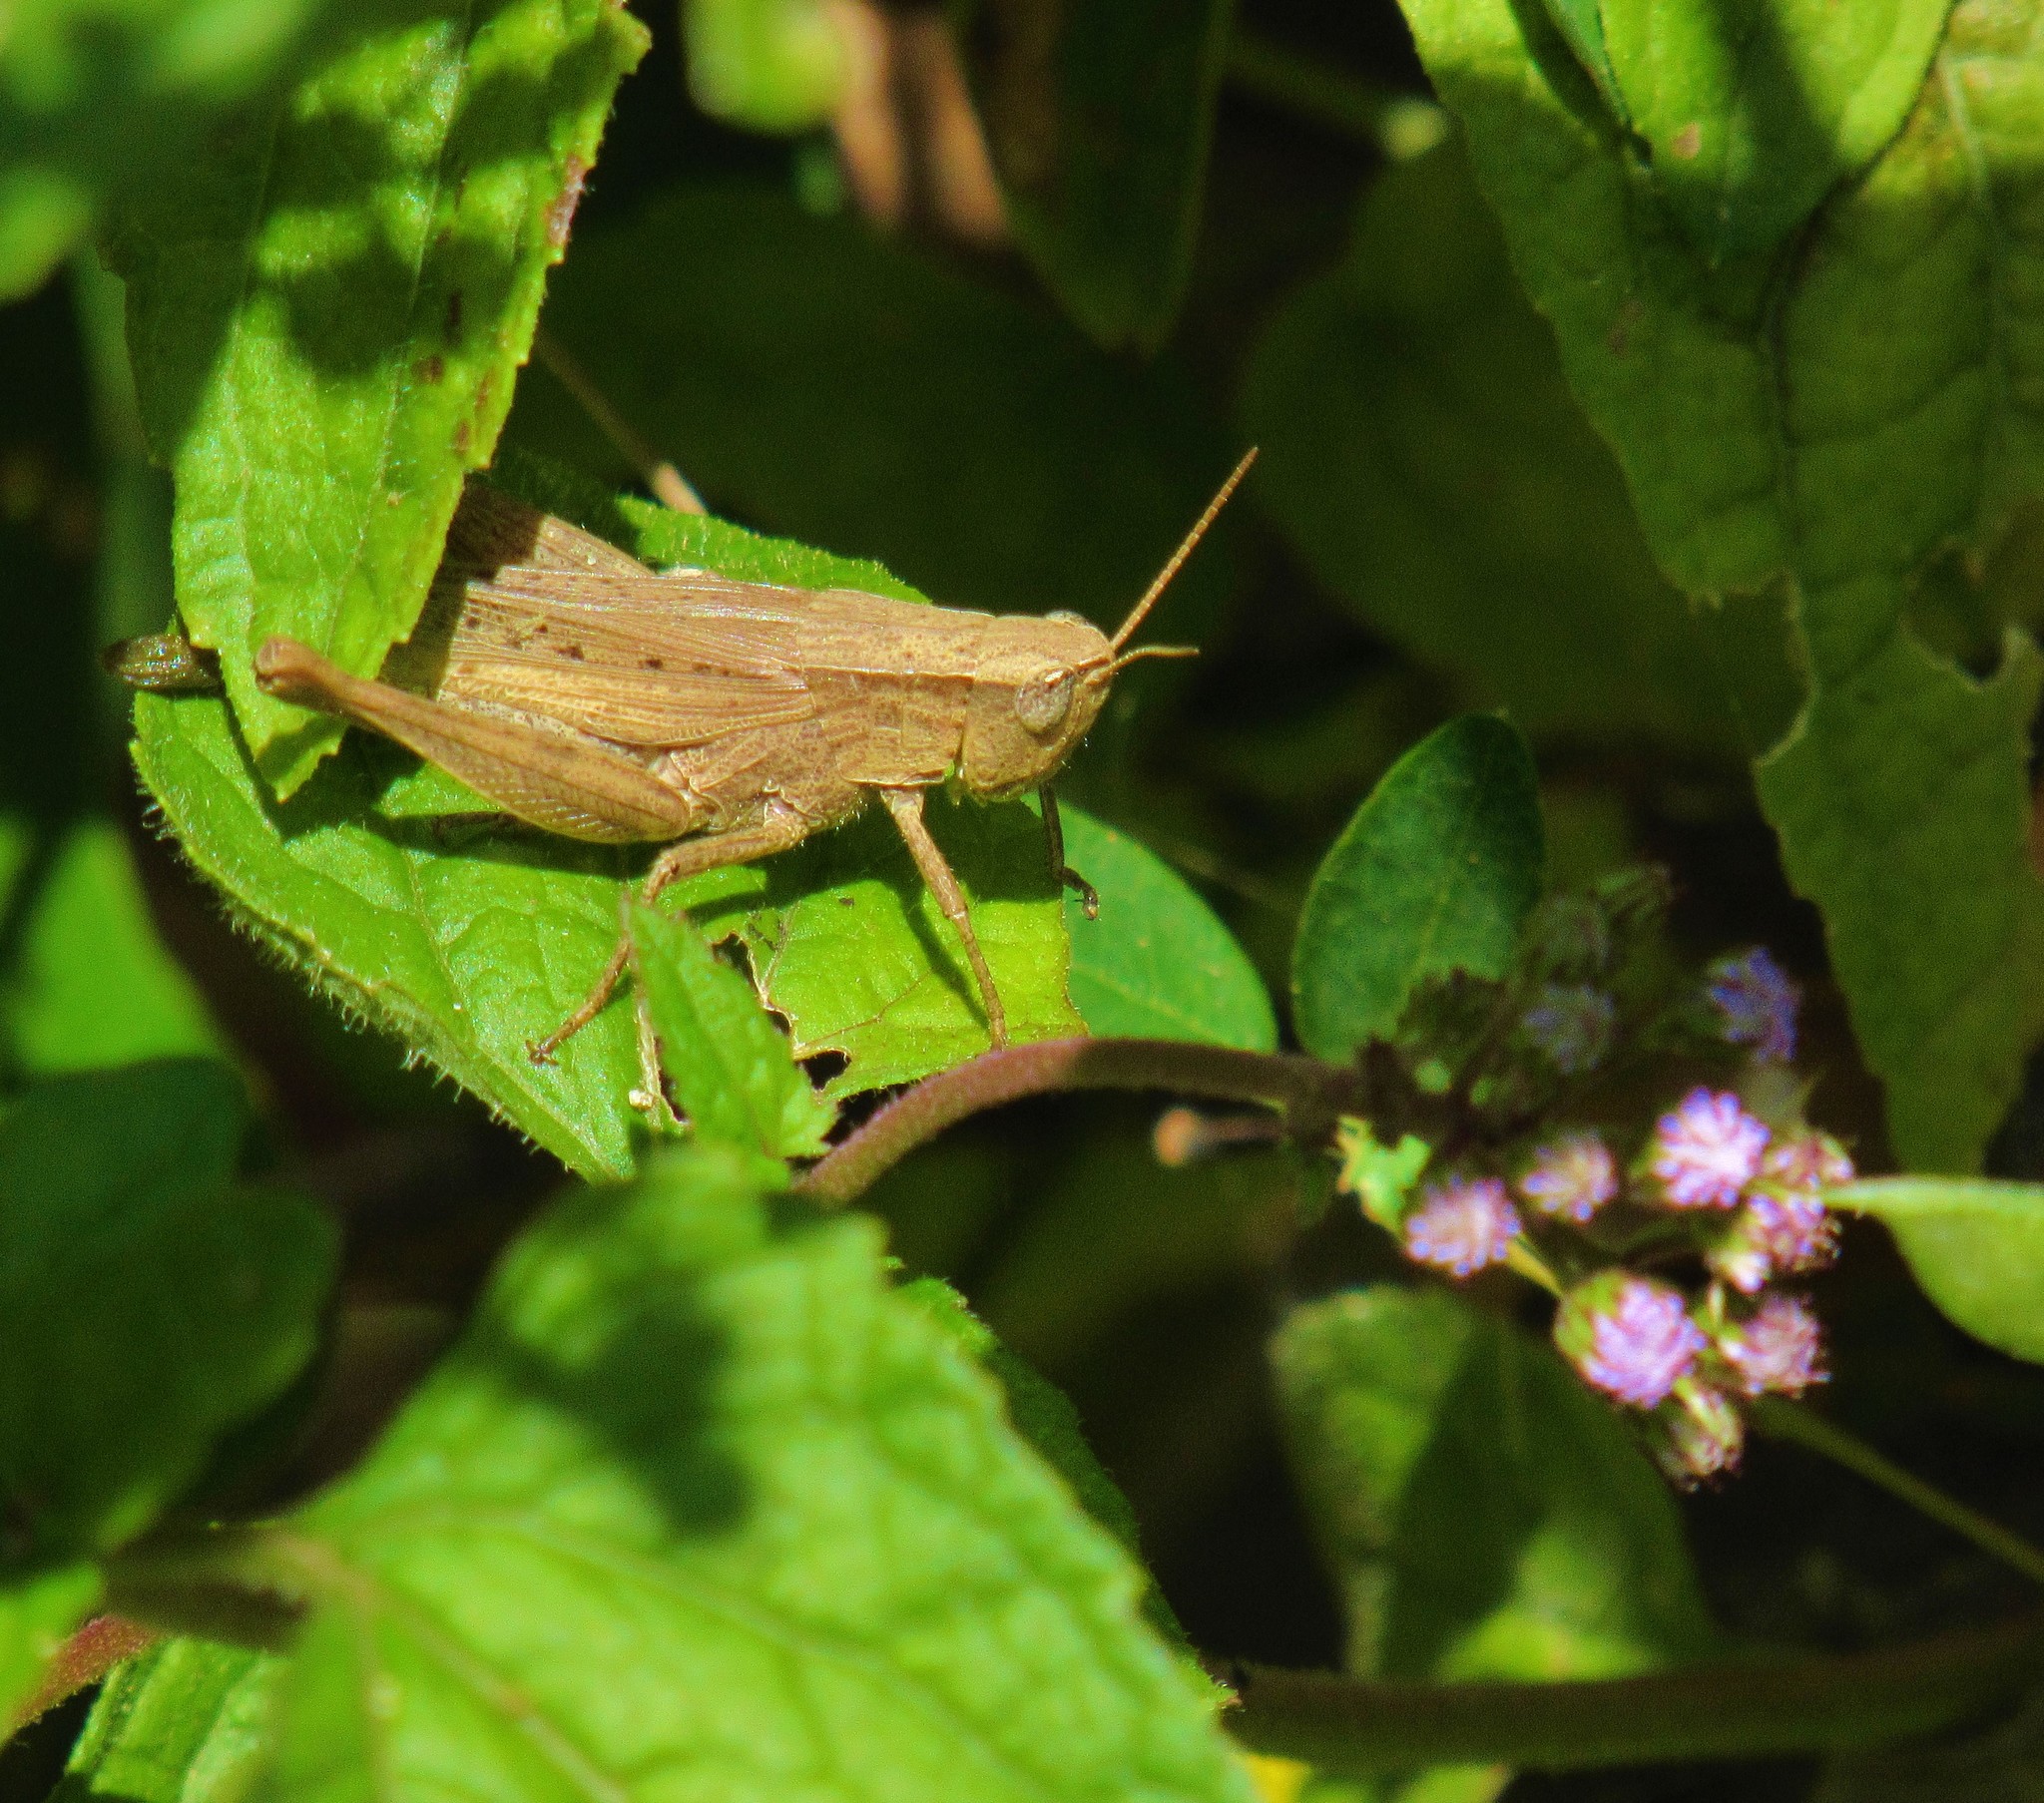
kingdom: Animalia
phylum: Arthropoda
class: Insecta
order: Orthoptera
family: Acrididae
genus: Dichromorpha
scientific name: Dichromorpha viridis
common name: Short-winged green grasshopper
